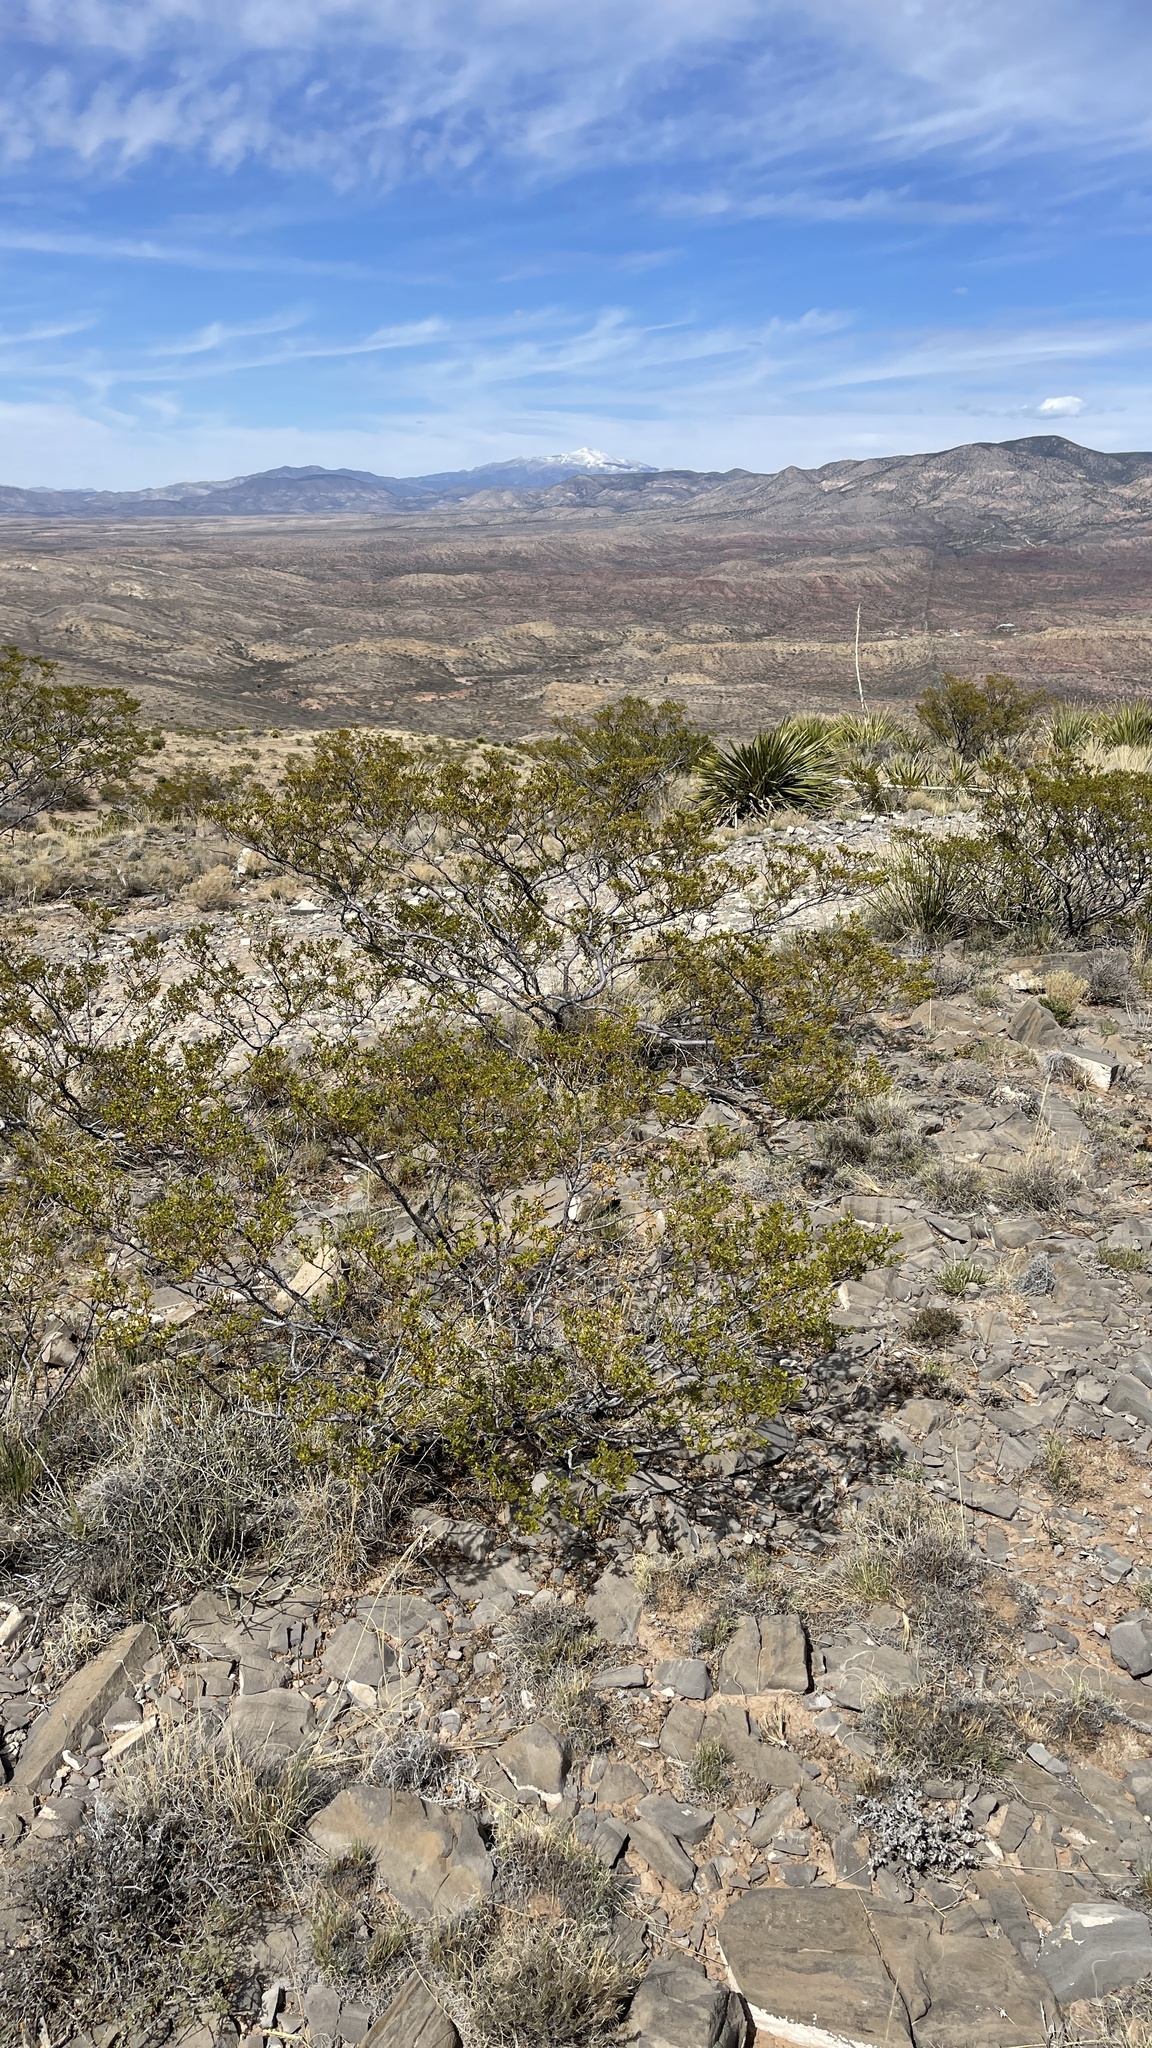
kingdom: Plantae
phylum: Tracheophyta
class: Magnoliopsida
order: Zygophyllales
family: Zygophyllaceae
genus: Larrea
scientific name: Larrea tridentata
